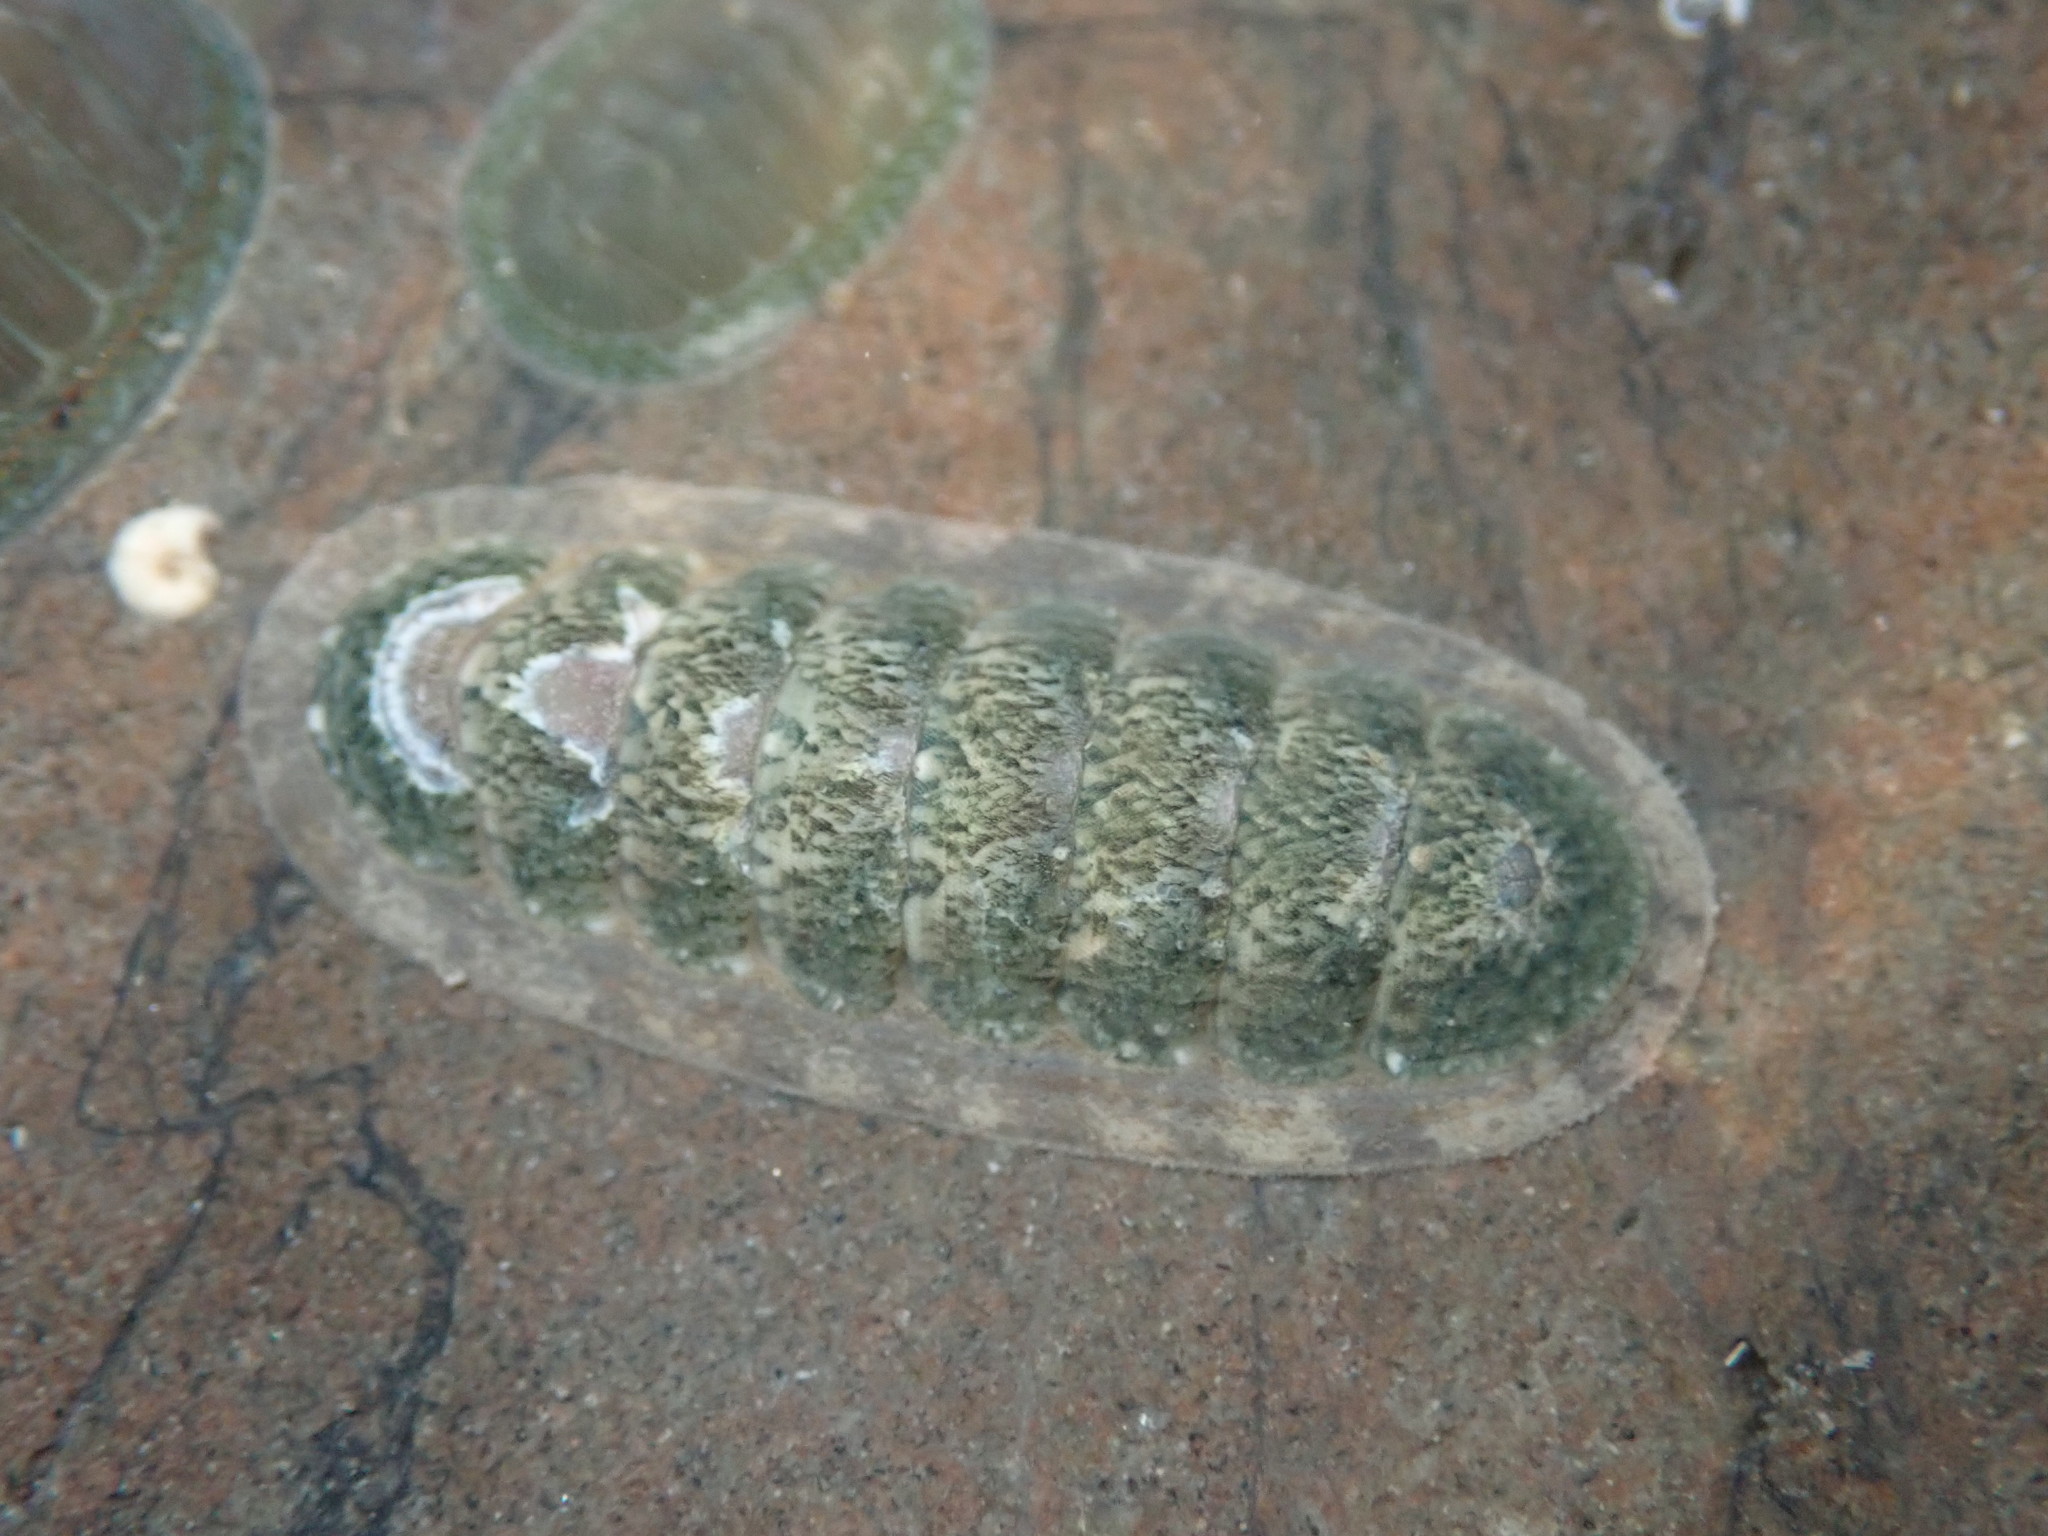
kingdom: Animalia
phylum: Mollusca
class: Polyplacophora
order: Chitonida
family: Ischnochitonidae
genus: Ischnochiton
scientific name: Ischnochiton maorianus
